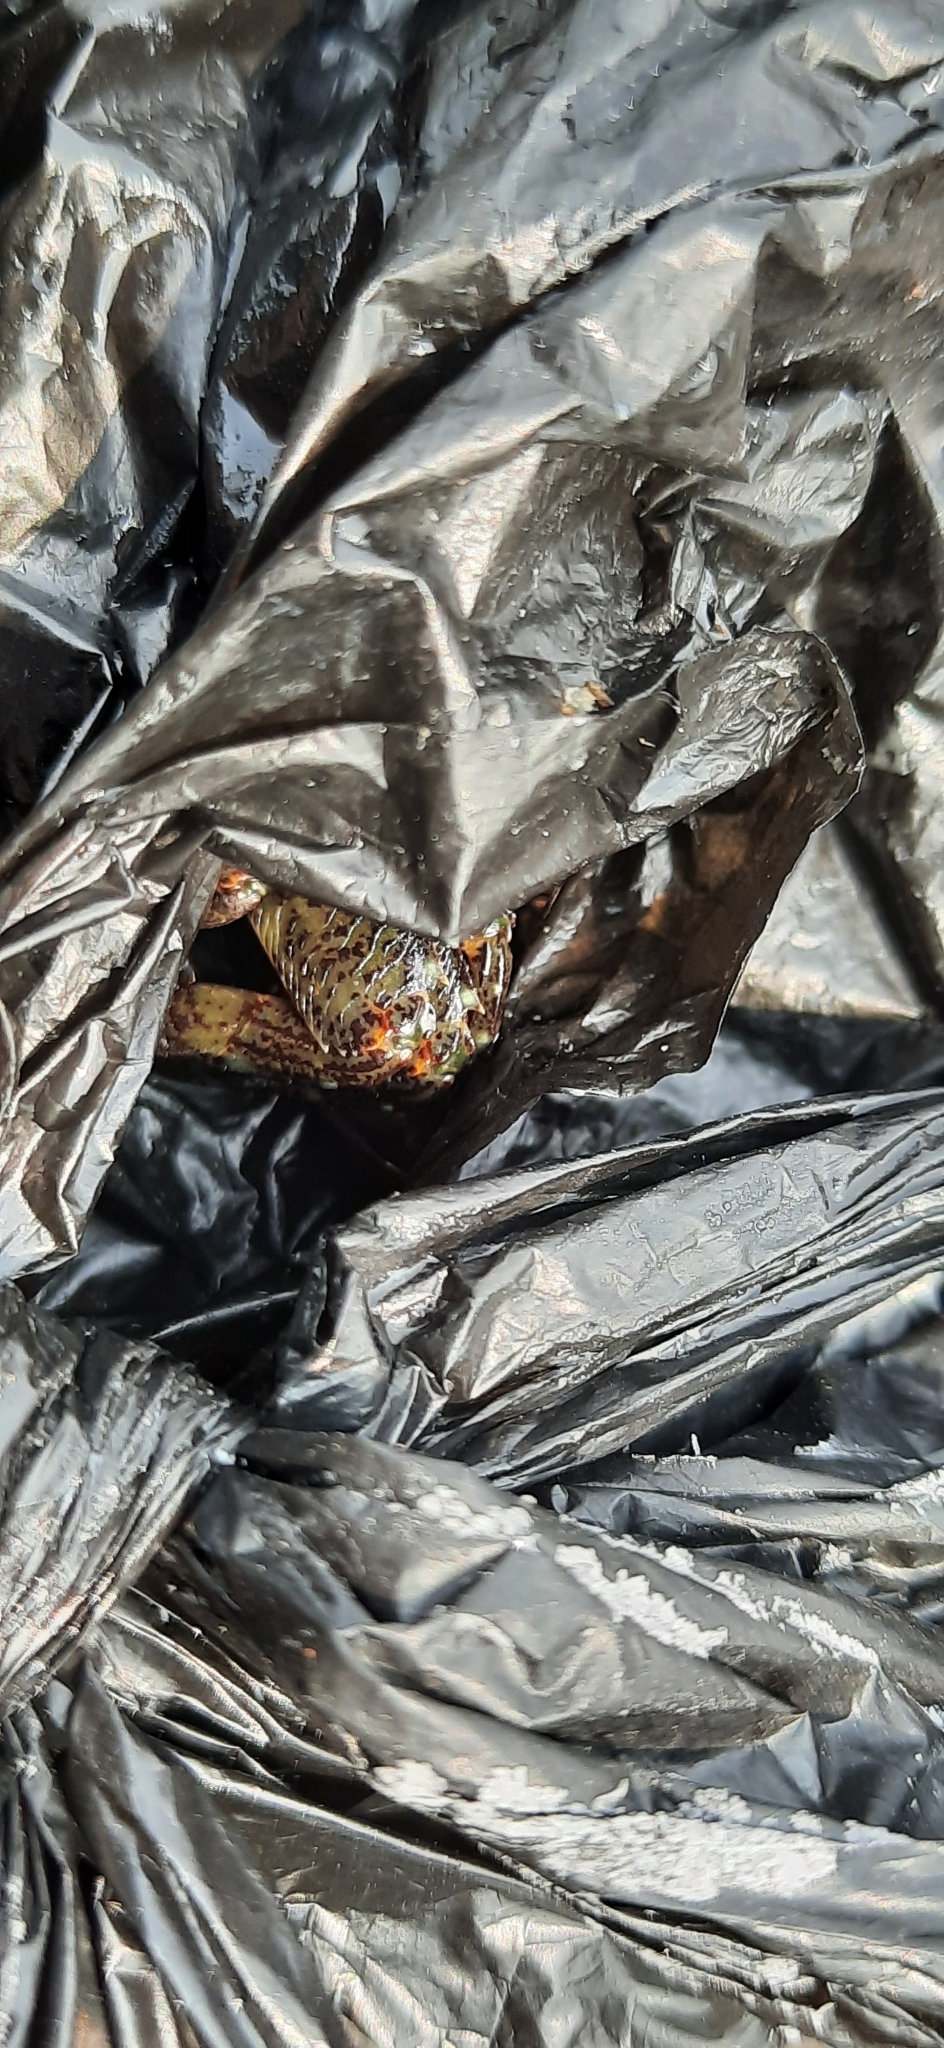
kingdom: Animalia
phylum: Arthropoda
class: Malacostraca
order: Decapoda
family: Grapsidae
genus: Grapsus
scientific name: Grapsus albolineatus
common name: Mottled lightfoot crab
